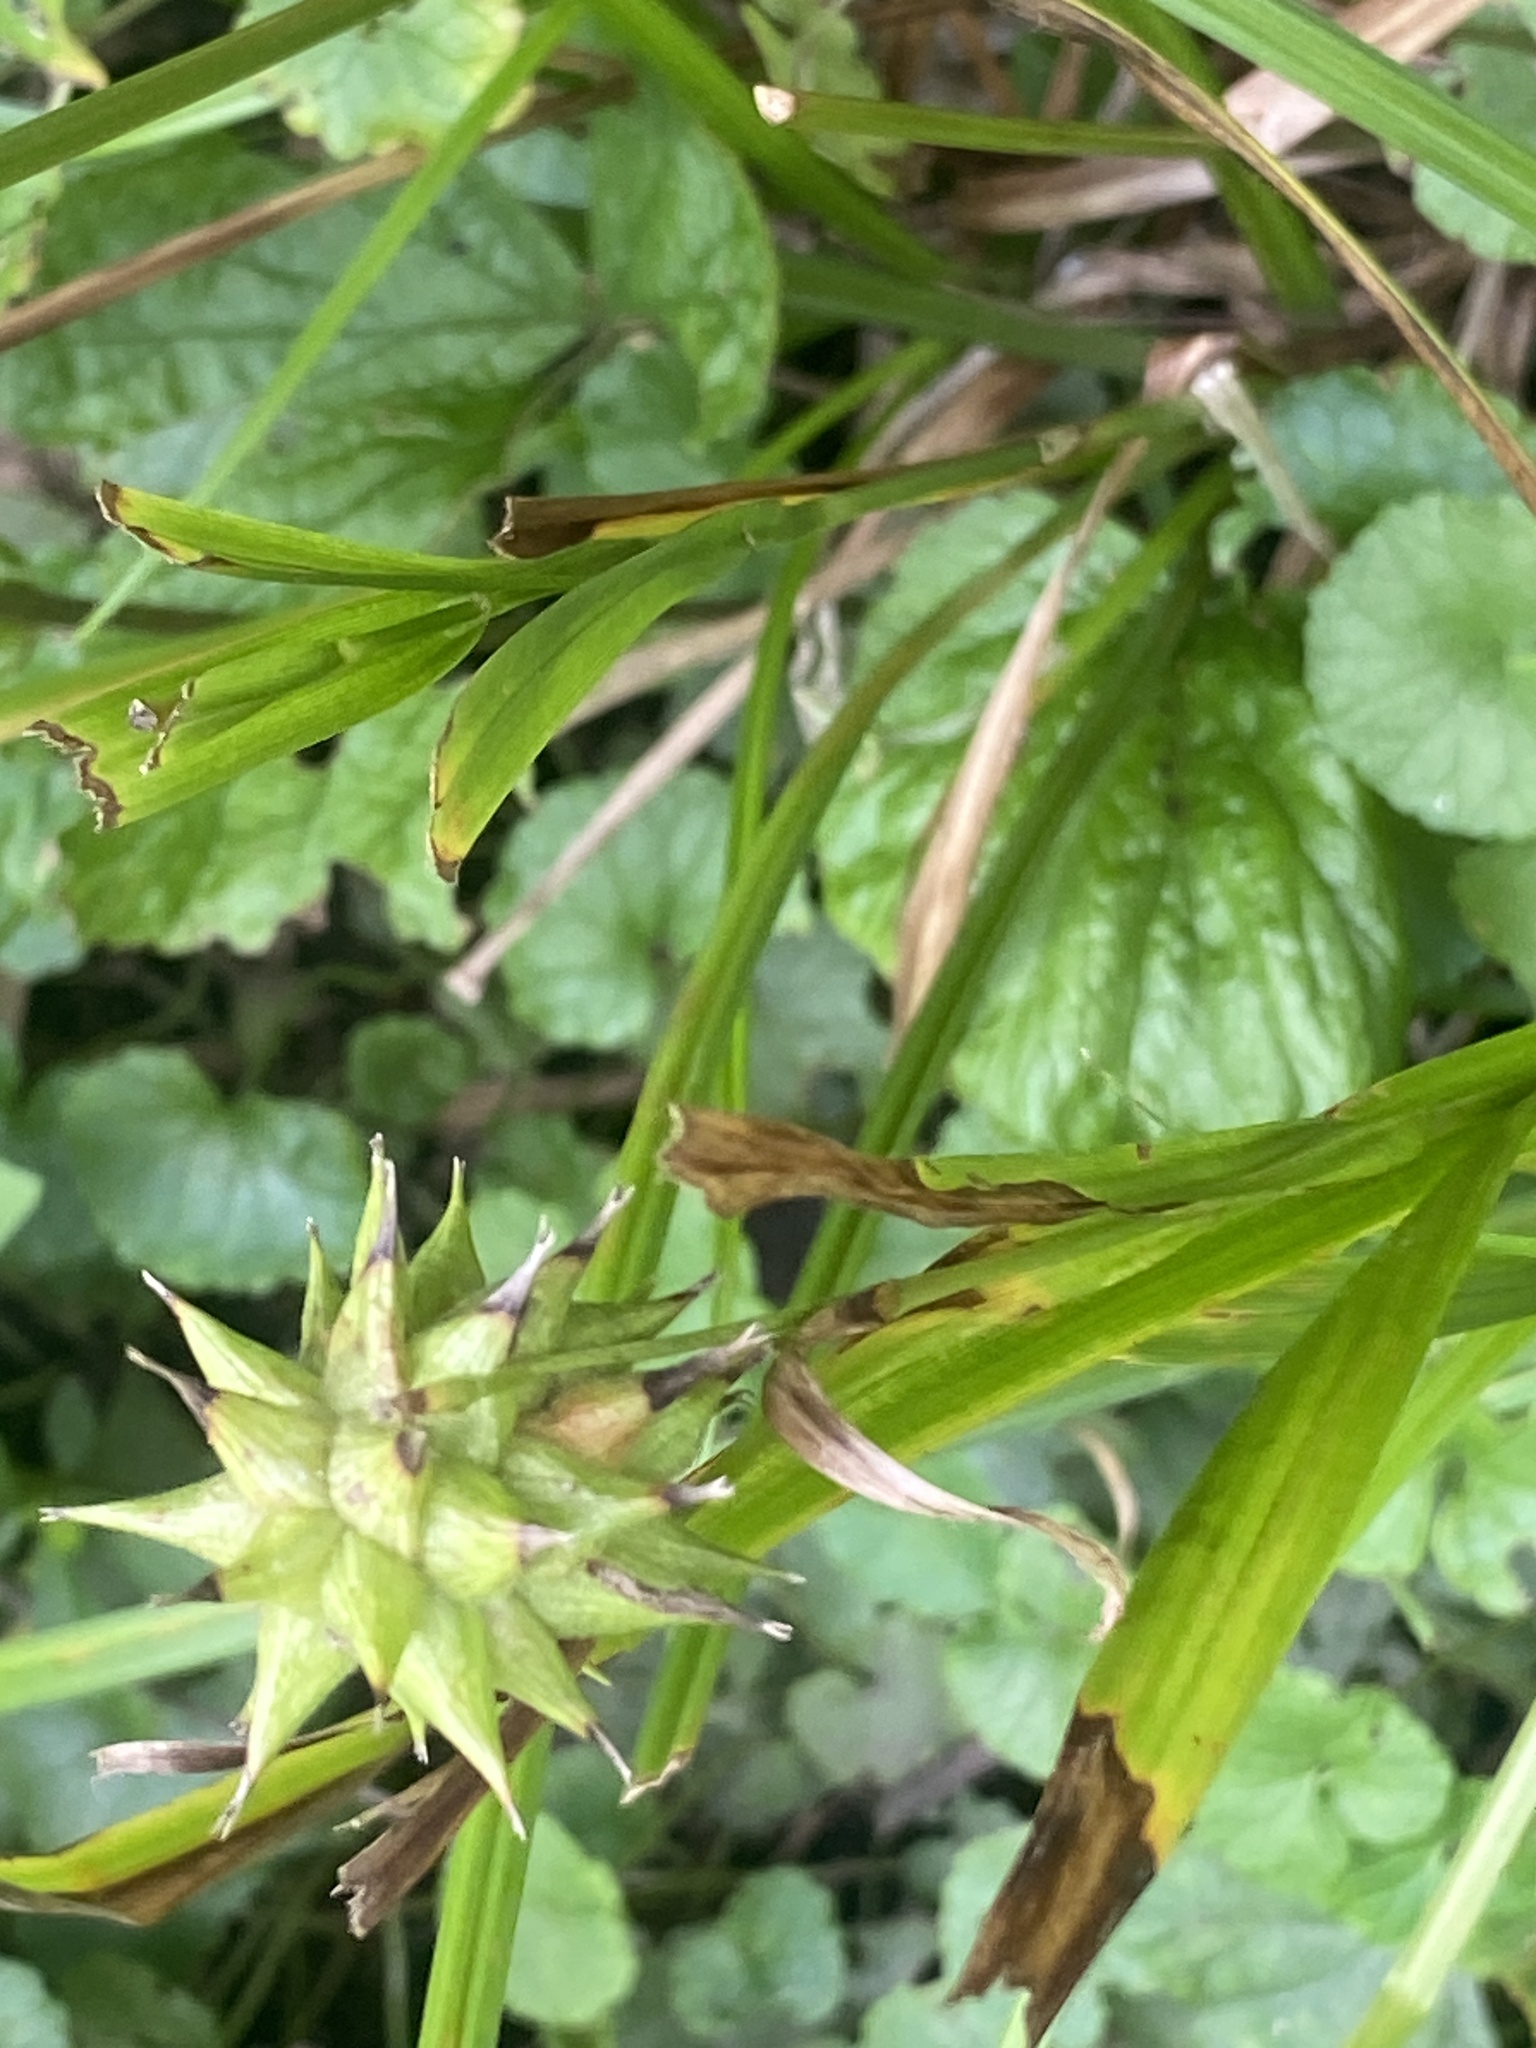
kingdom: Plantae
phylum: Tracheophyta
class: Liliopsida
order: Poales
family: Cyperaceae
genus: Carex
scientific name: Carex grayi
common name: Asa gray's sedge
